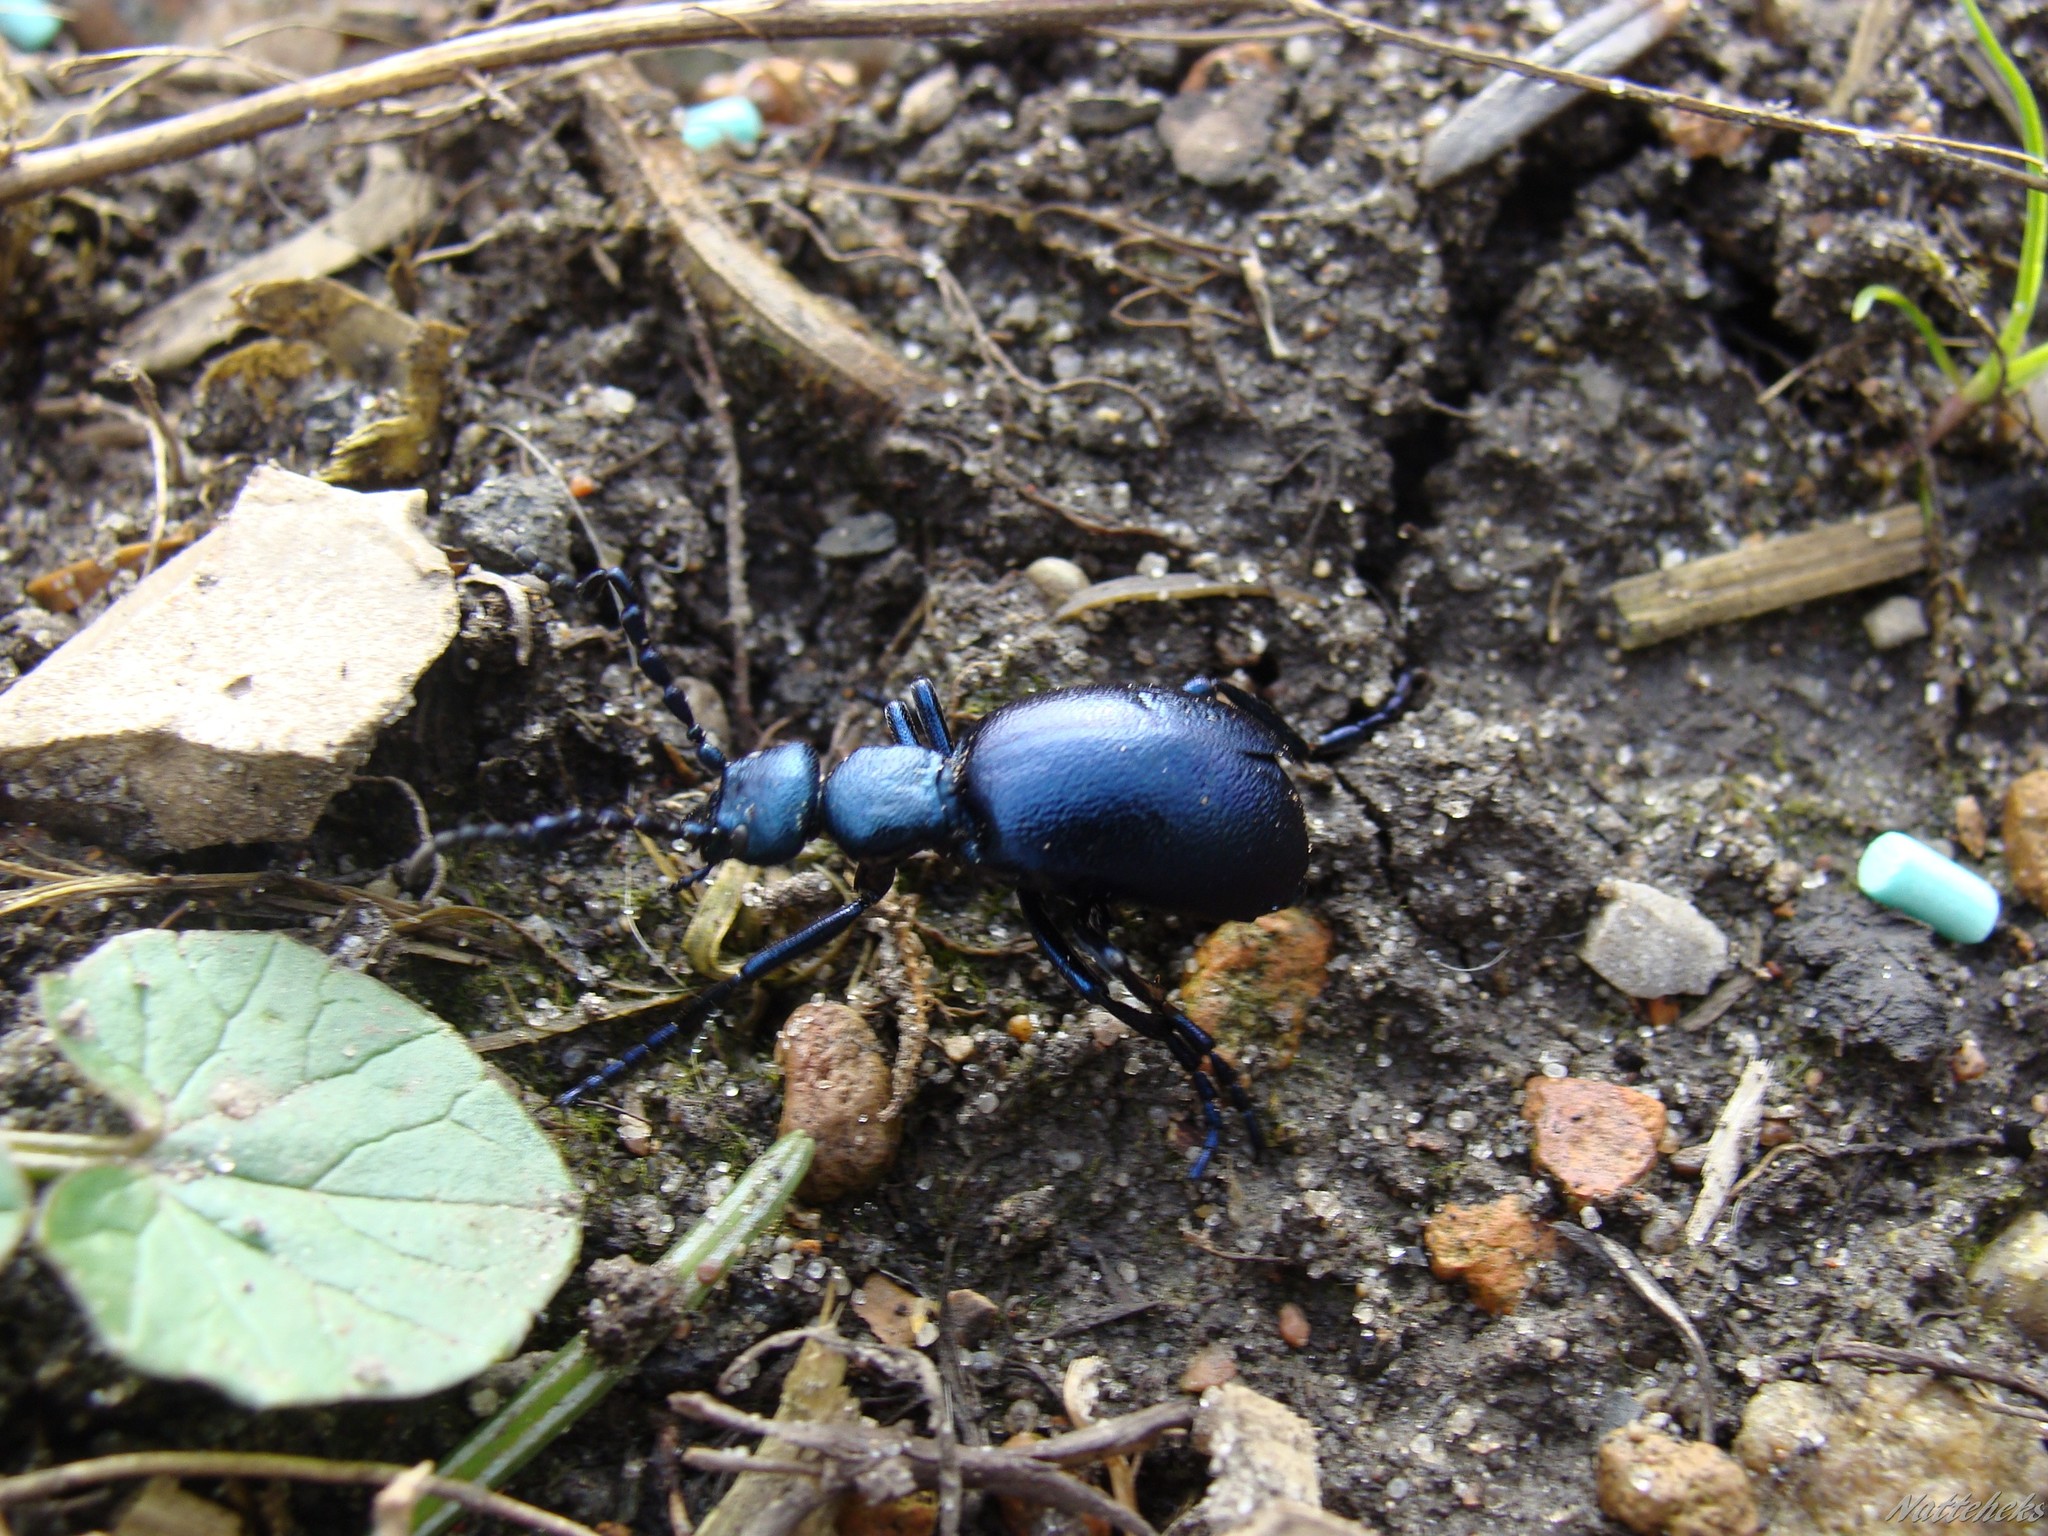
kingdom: Animalia
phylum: Arthropoda
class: Insecta
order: Coleoptera
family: Meloidae
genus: Meloe
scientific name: Meloe violaceus
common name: Violet oil-beetle
